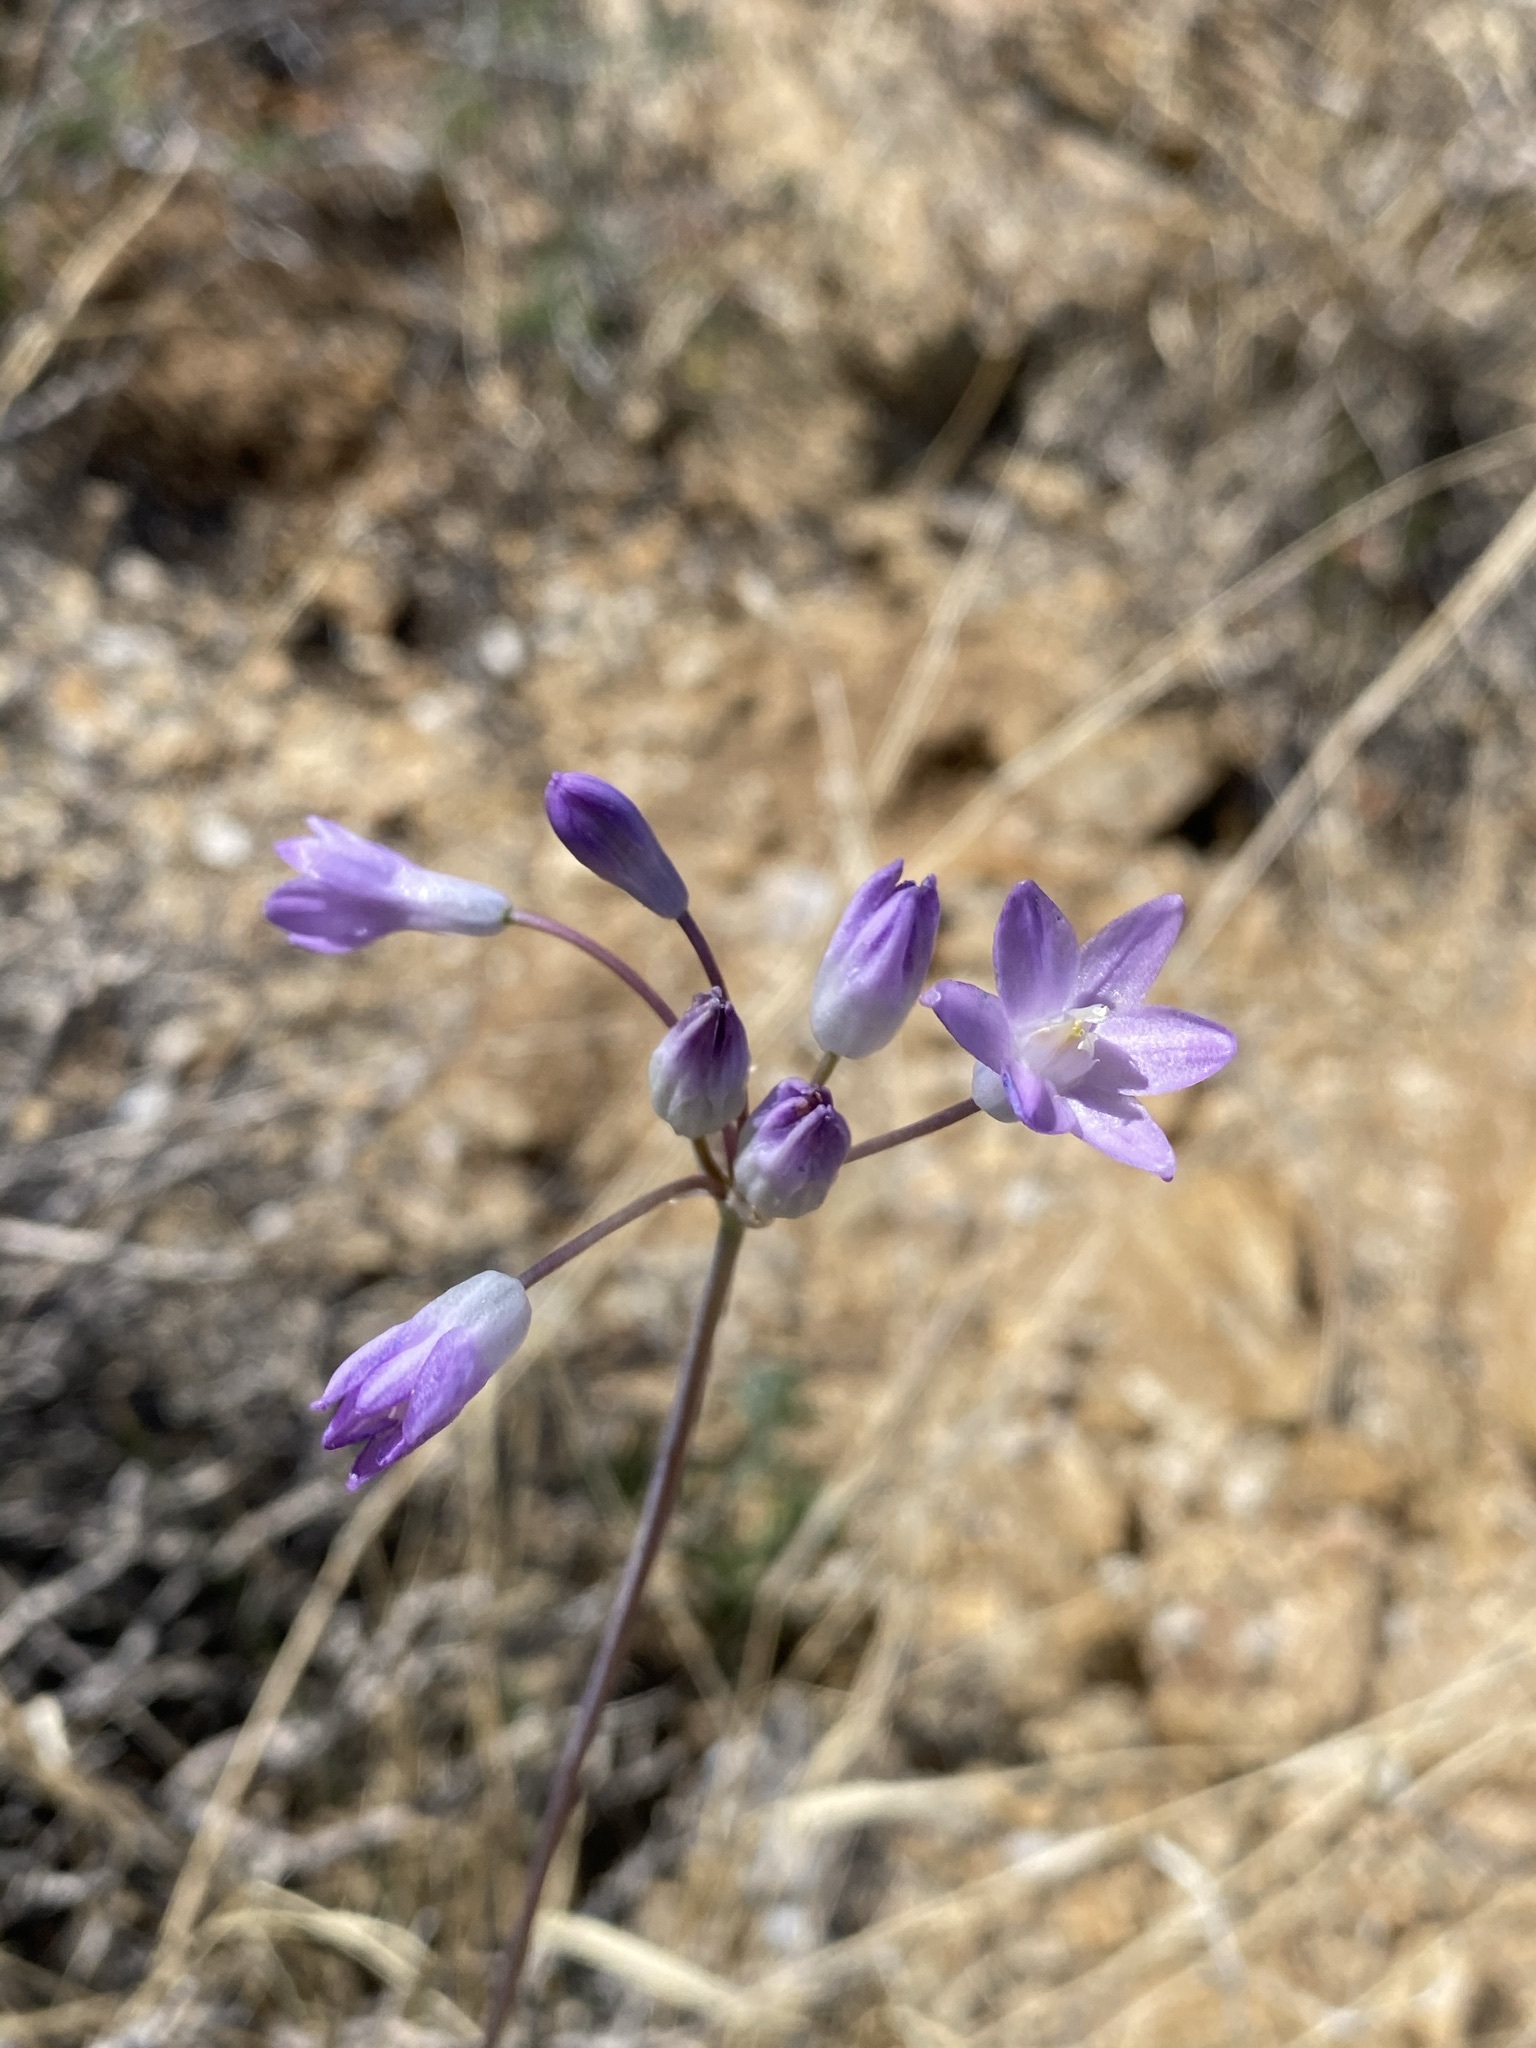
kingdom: Plantae
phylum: Tracheophyta
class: Liliopsida
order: Asparagales
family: Asparagaceae
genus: Dipterostemon
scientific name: Dipterostemon capitatus
